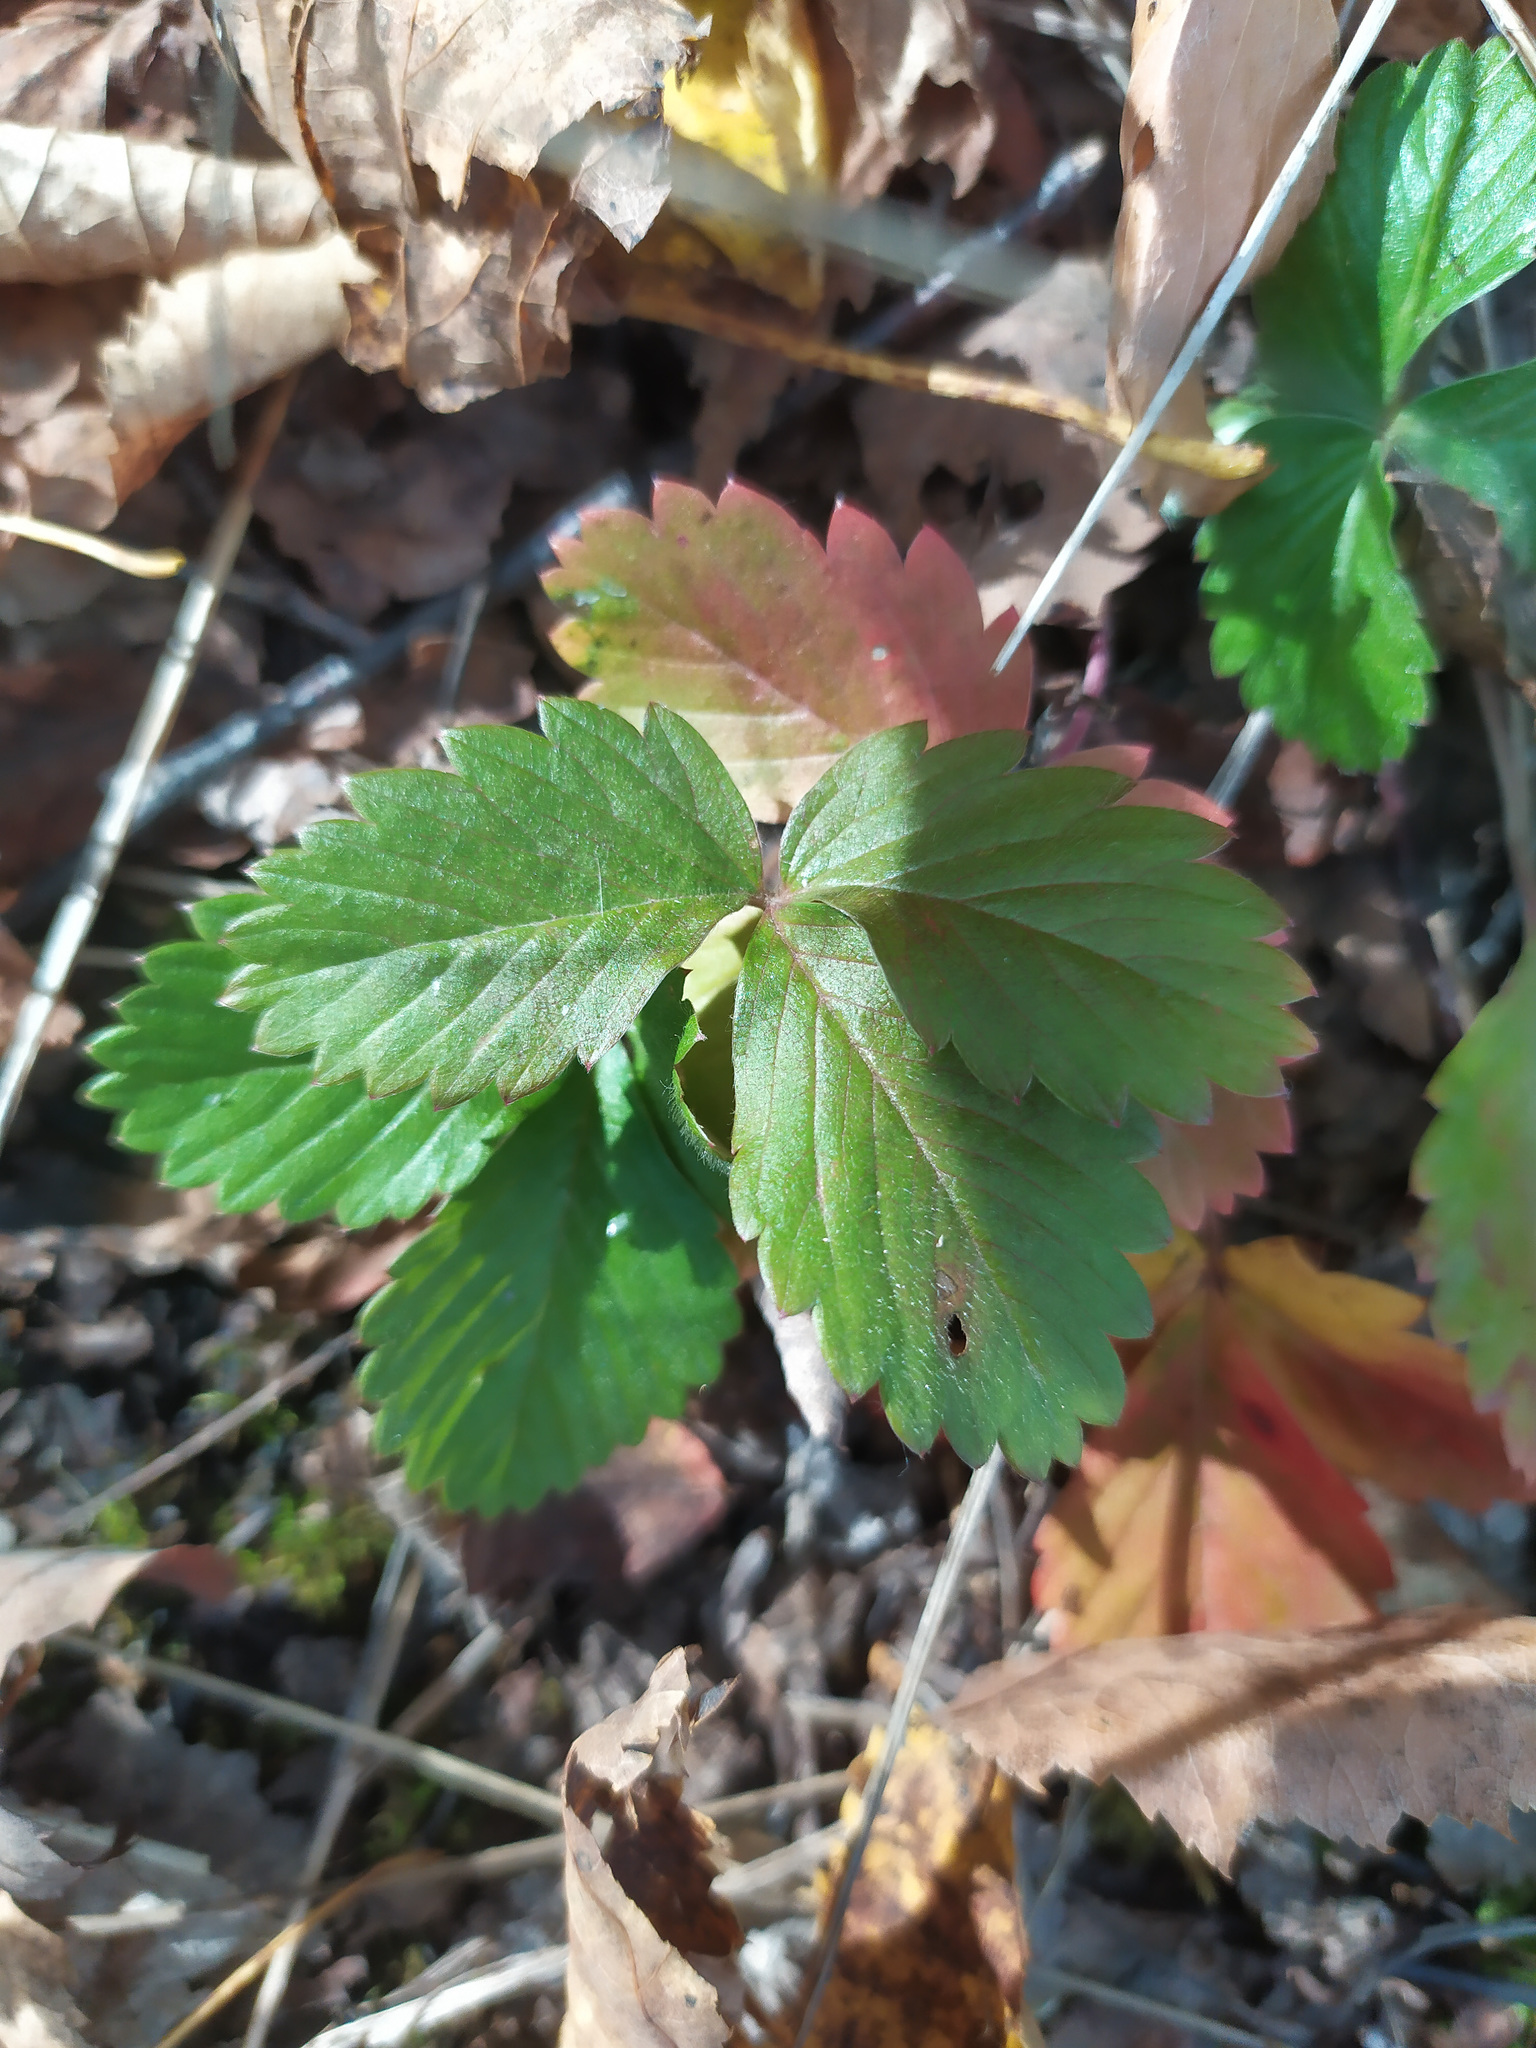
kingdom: Plantae
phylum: Tracheophyta
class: Magnoliopsida
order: Rosales
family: Rosaceae
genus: Fragaria
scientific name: Fragaria vesca
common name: Wild strawberry
